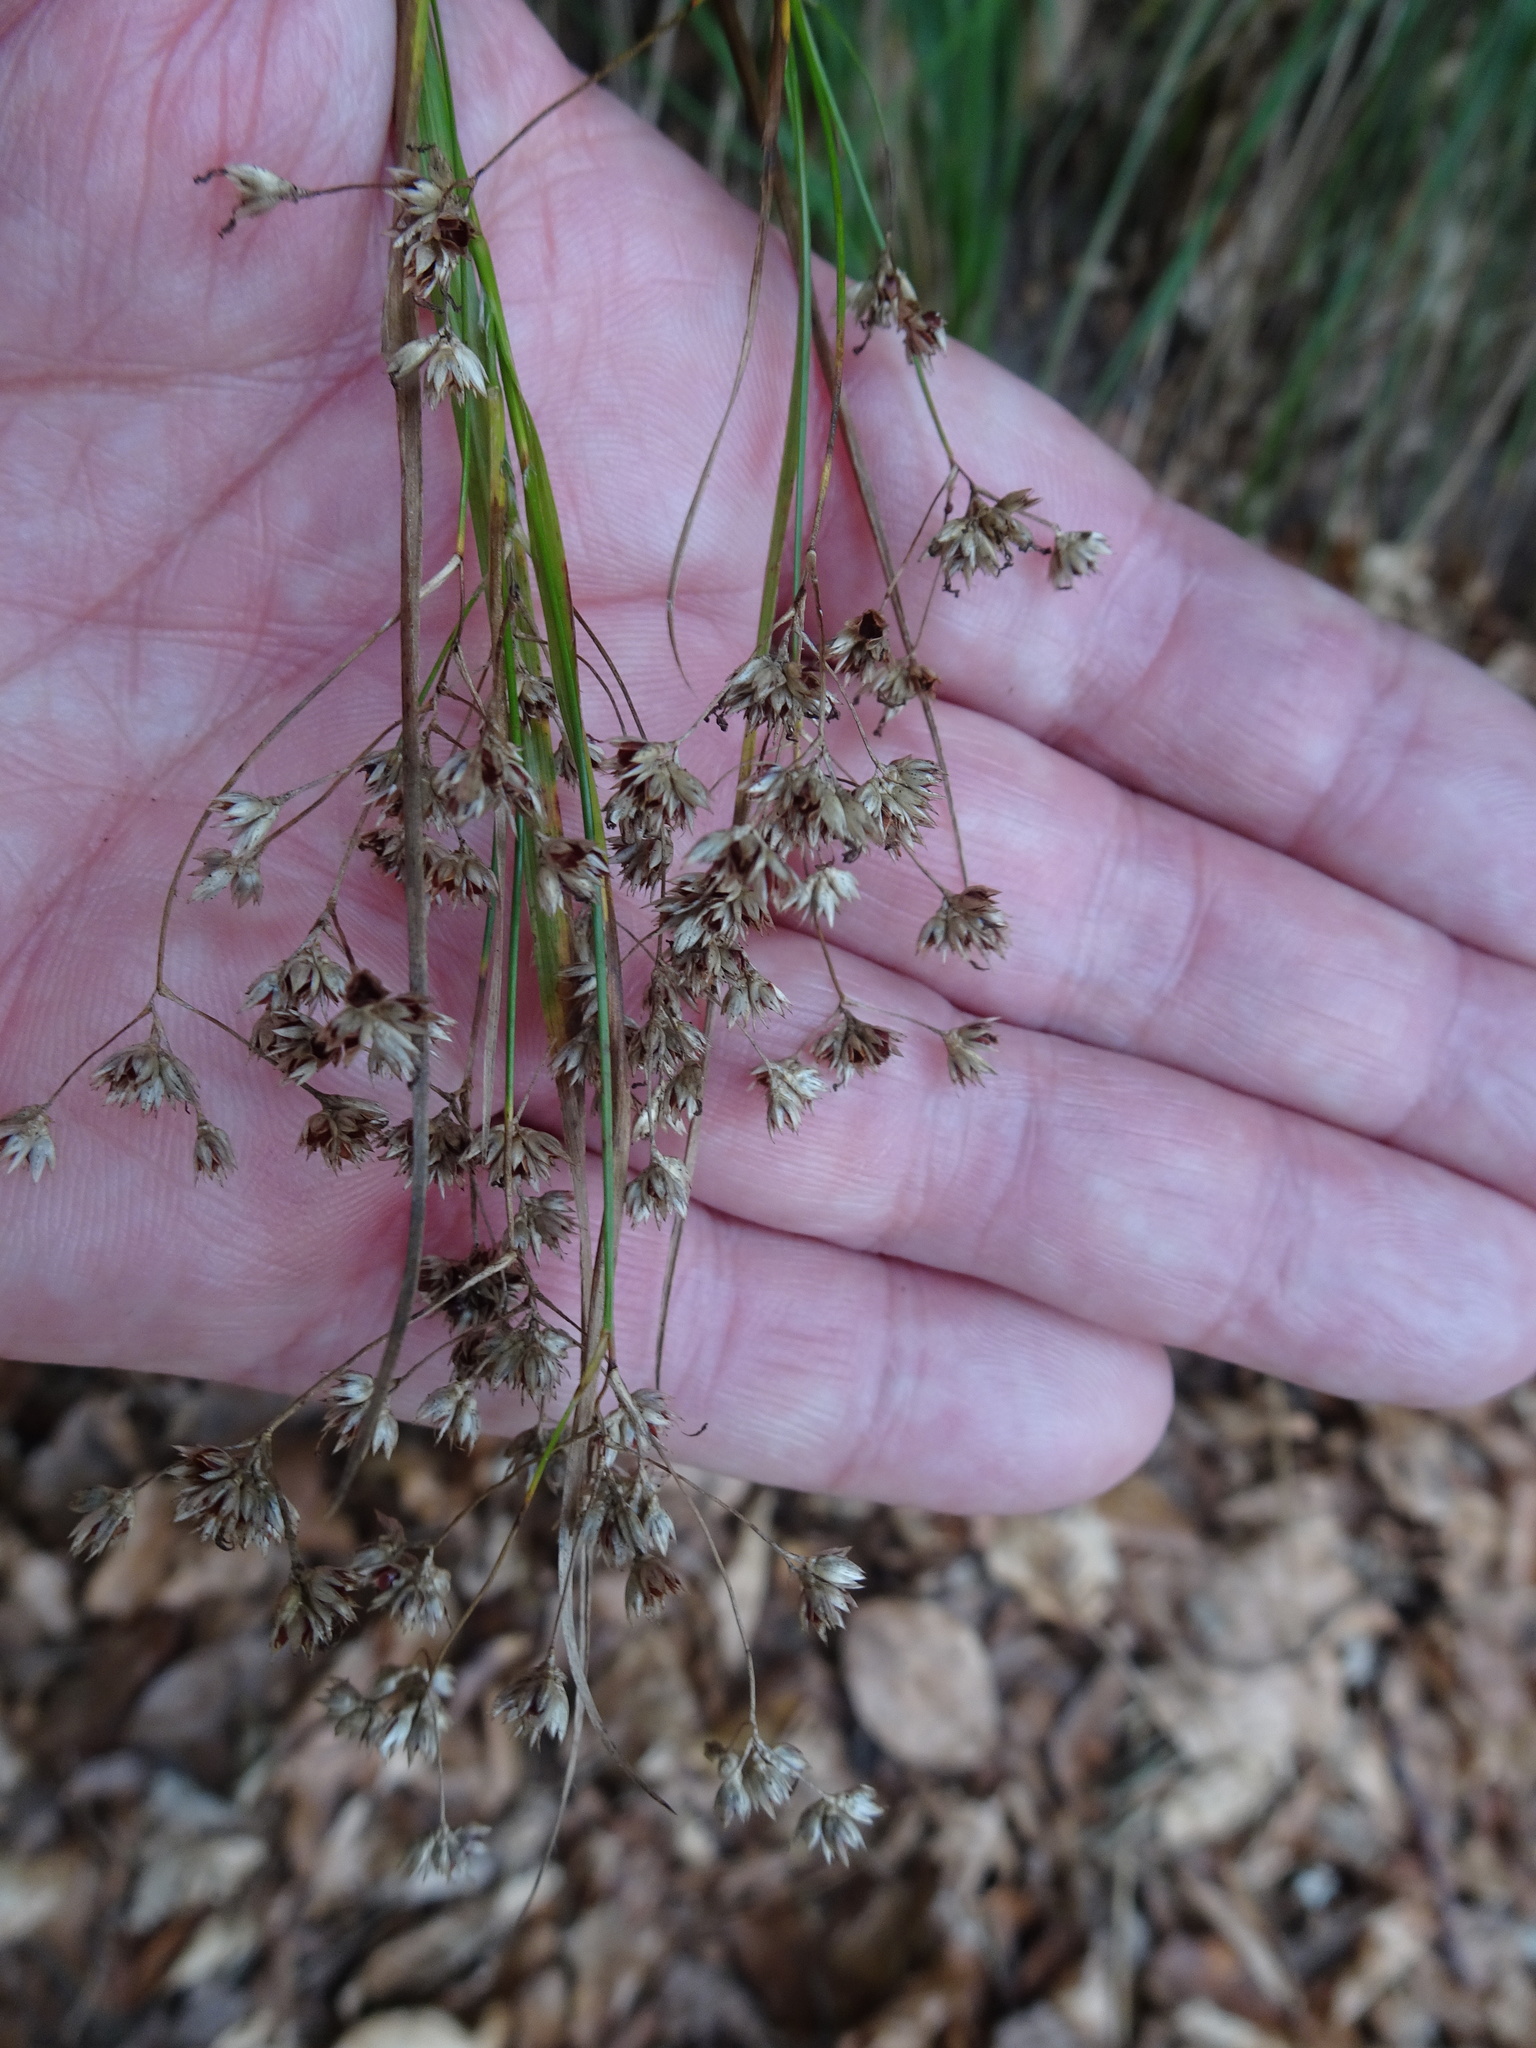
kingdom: Plantae
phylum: Tracheophyta
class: Liliopsida
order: Poales
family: Juncaceae
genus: Luzula
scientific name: Luzula luzuloides
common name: White wood-rush
